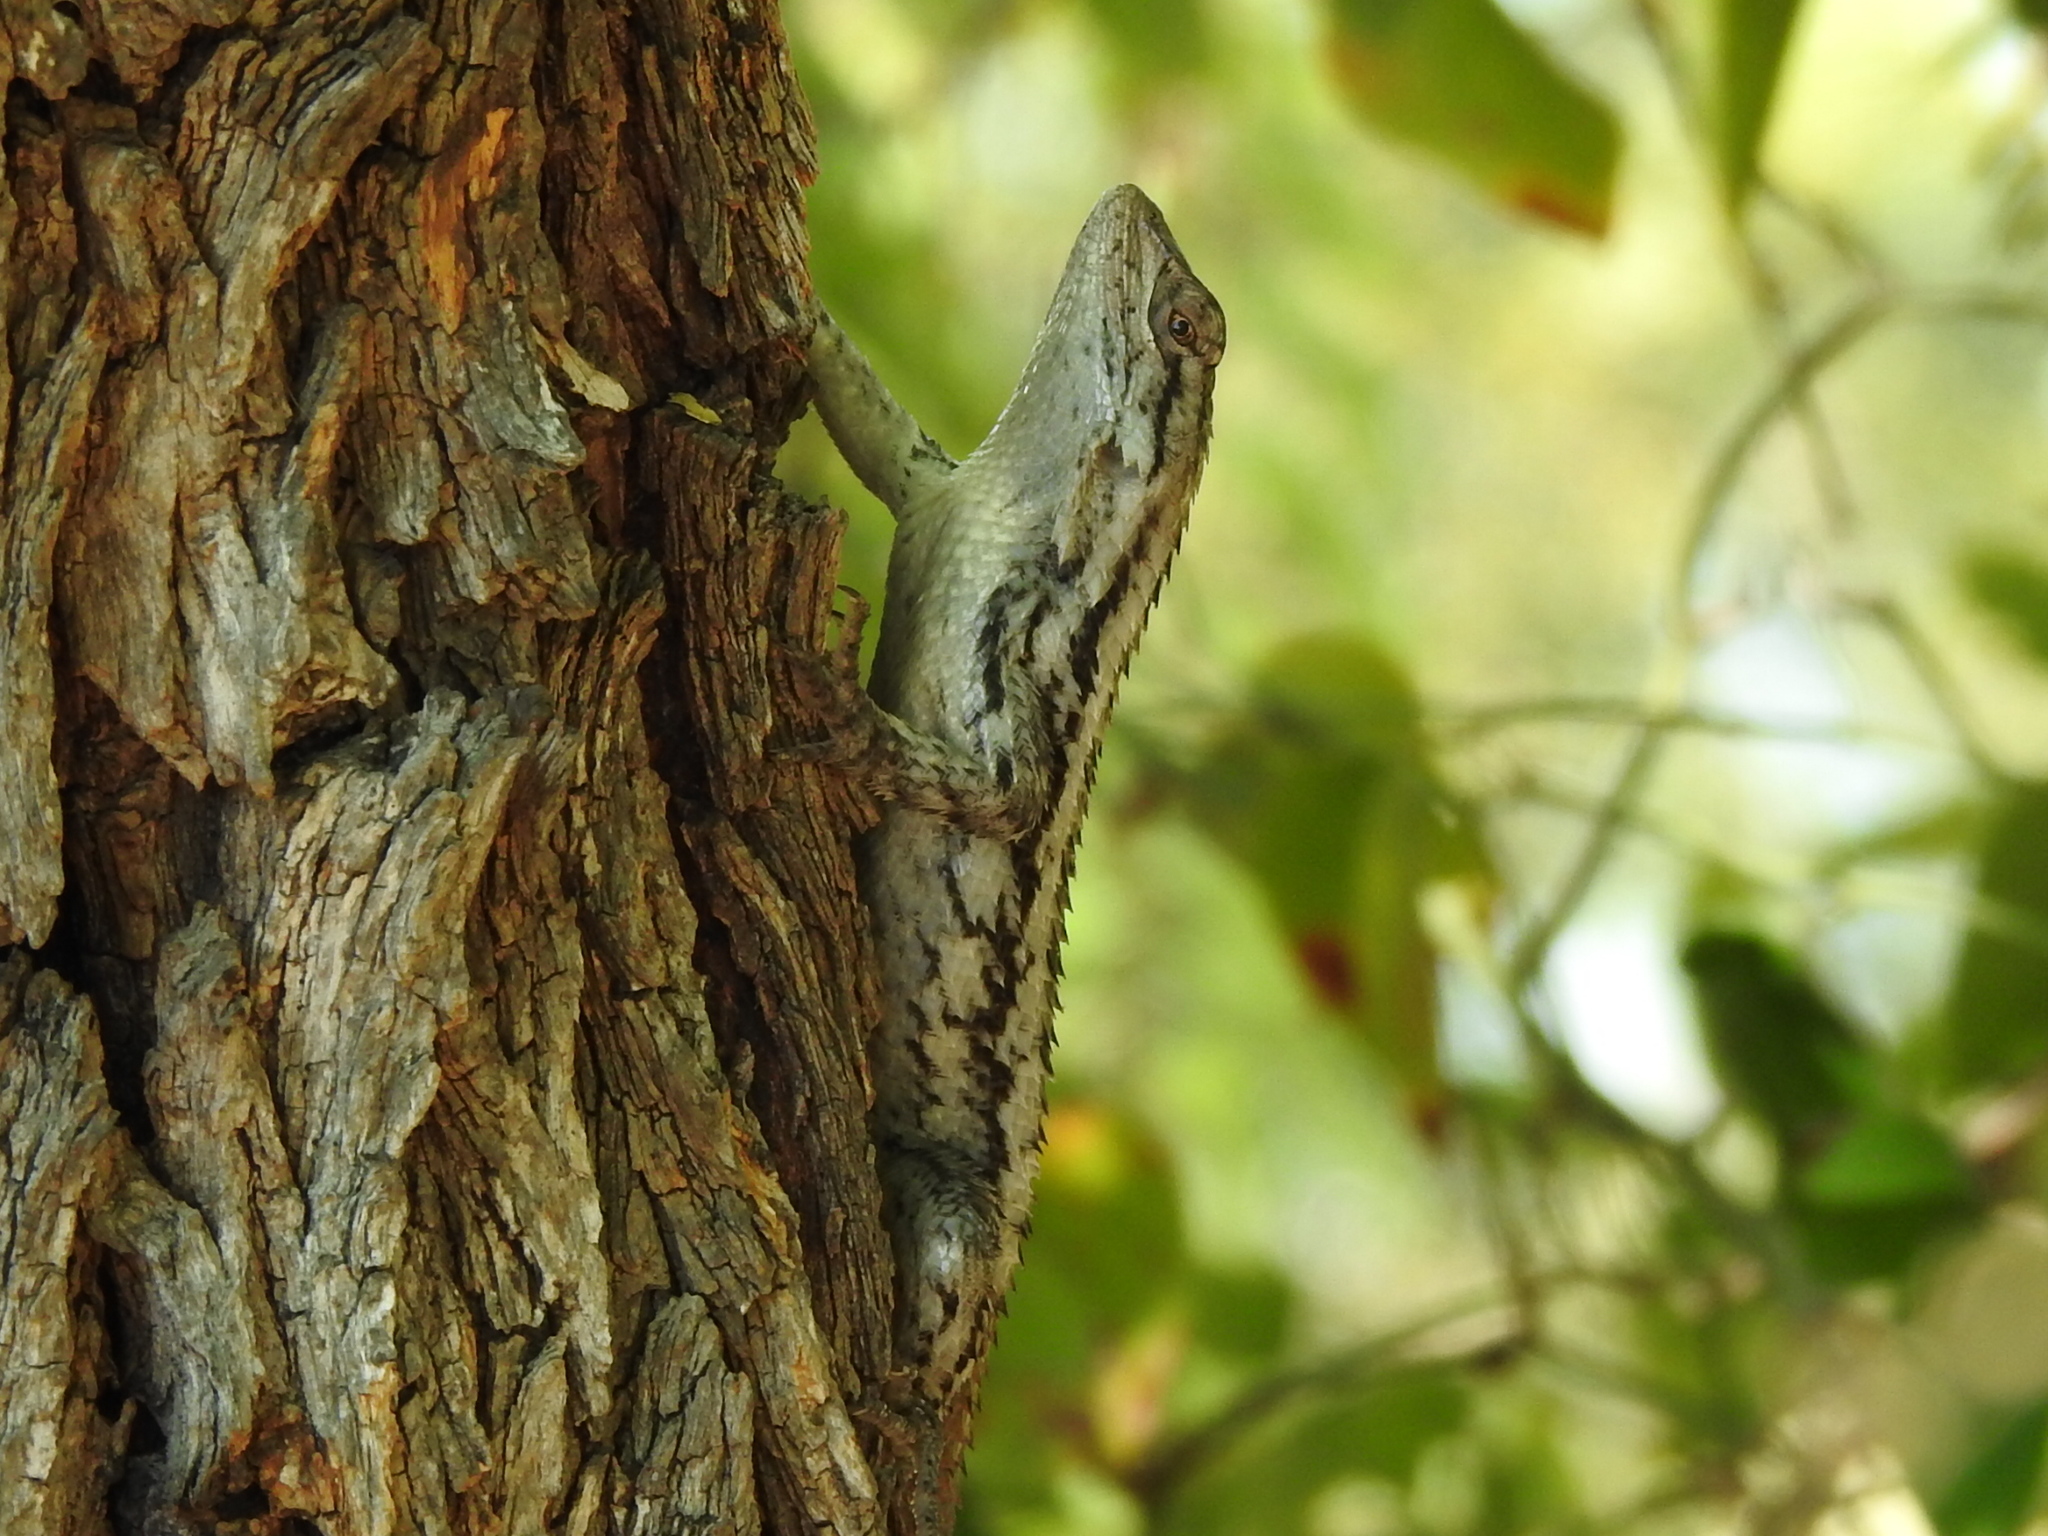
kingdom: Animalia
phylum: Chordata
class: Squamata
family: Phrynosomatidae
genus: Sceloporus
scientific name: Sceloporus olivaceus
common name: Texas spiny lizard
